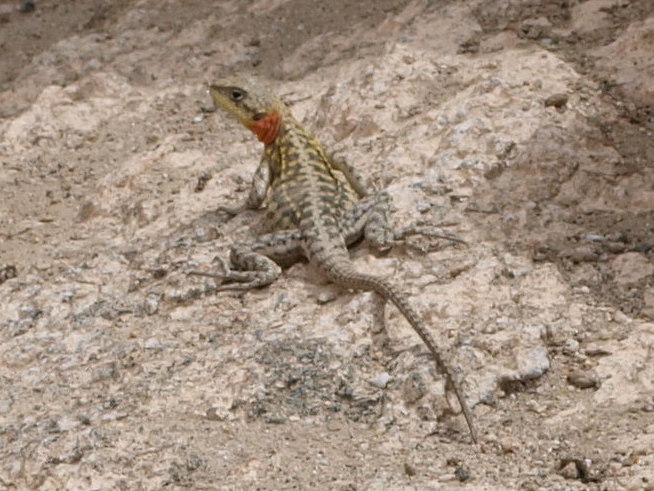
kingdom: Animalia
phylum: Chordata
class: Squamata
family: Agamidae
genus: Paralaudakia
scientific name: Paralaudakia himalayana
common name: Himalayan agama
